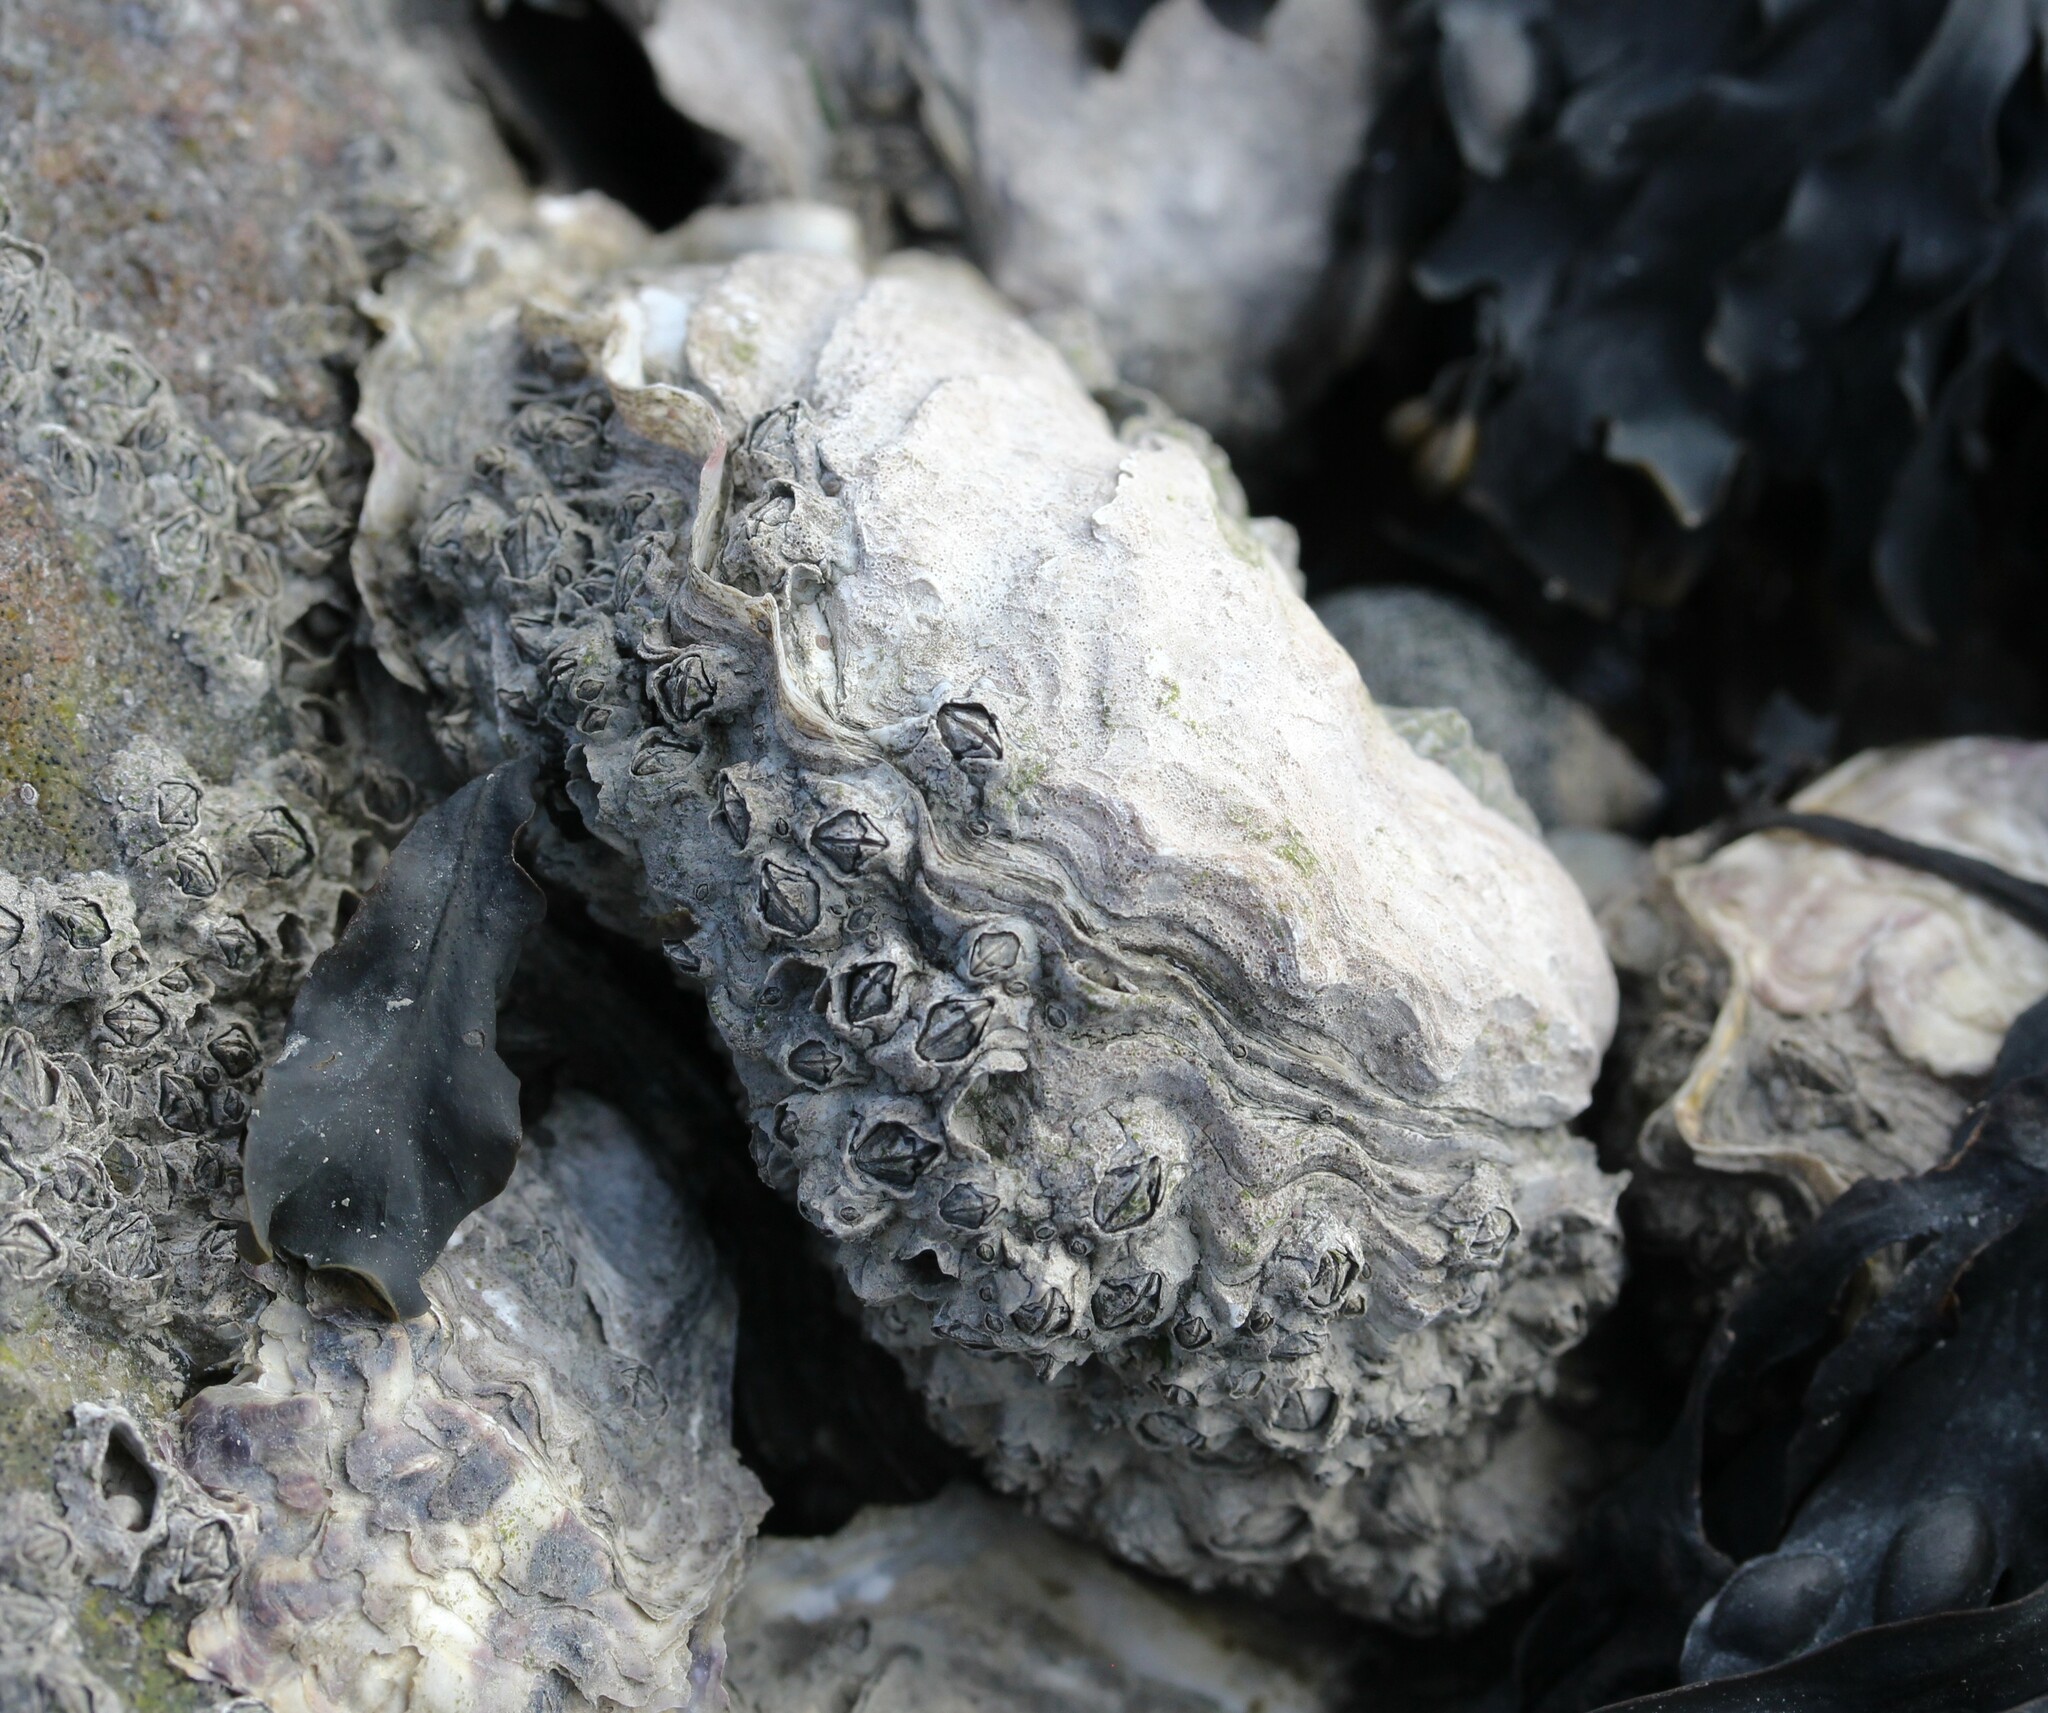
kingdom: Animalia
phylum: Mollusca
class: Bivalvia
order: Ostreida
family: Ostreidae
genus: Magallana
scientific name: Magallana gigas
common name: Pacific oyster
